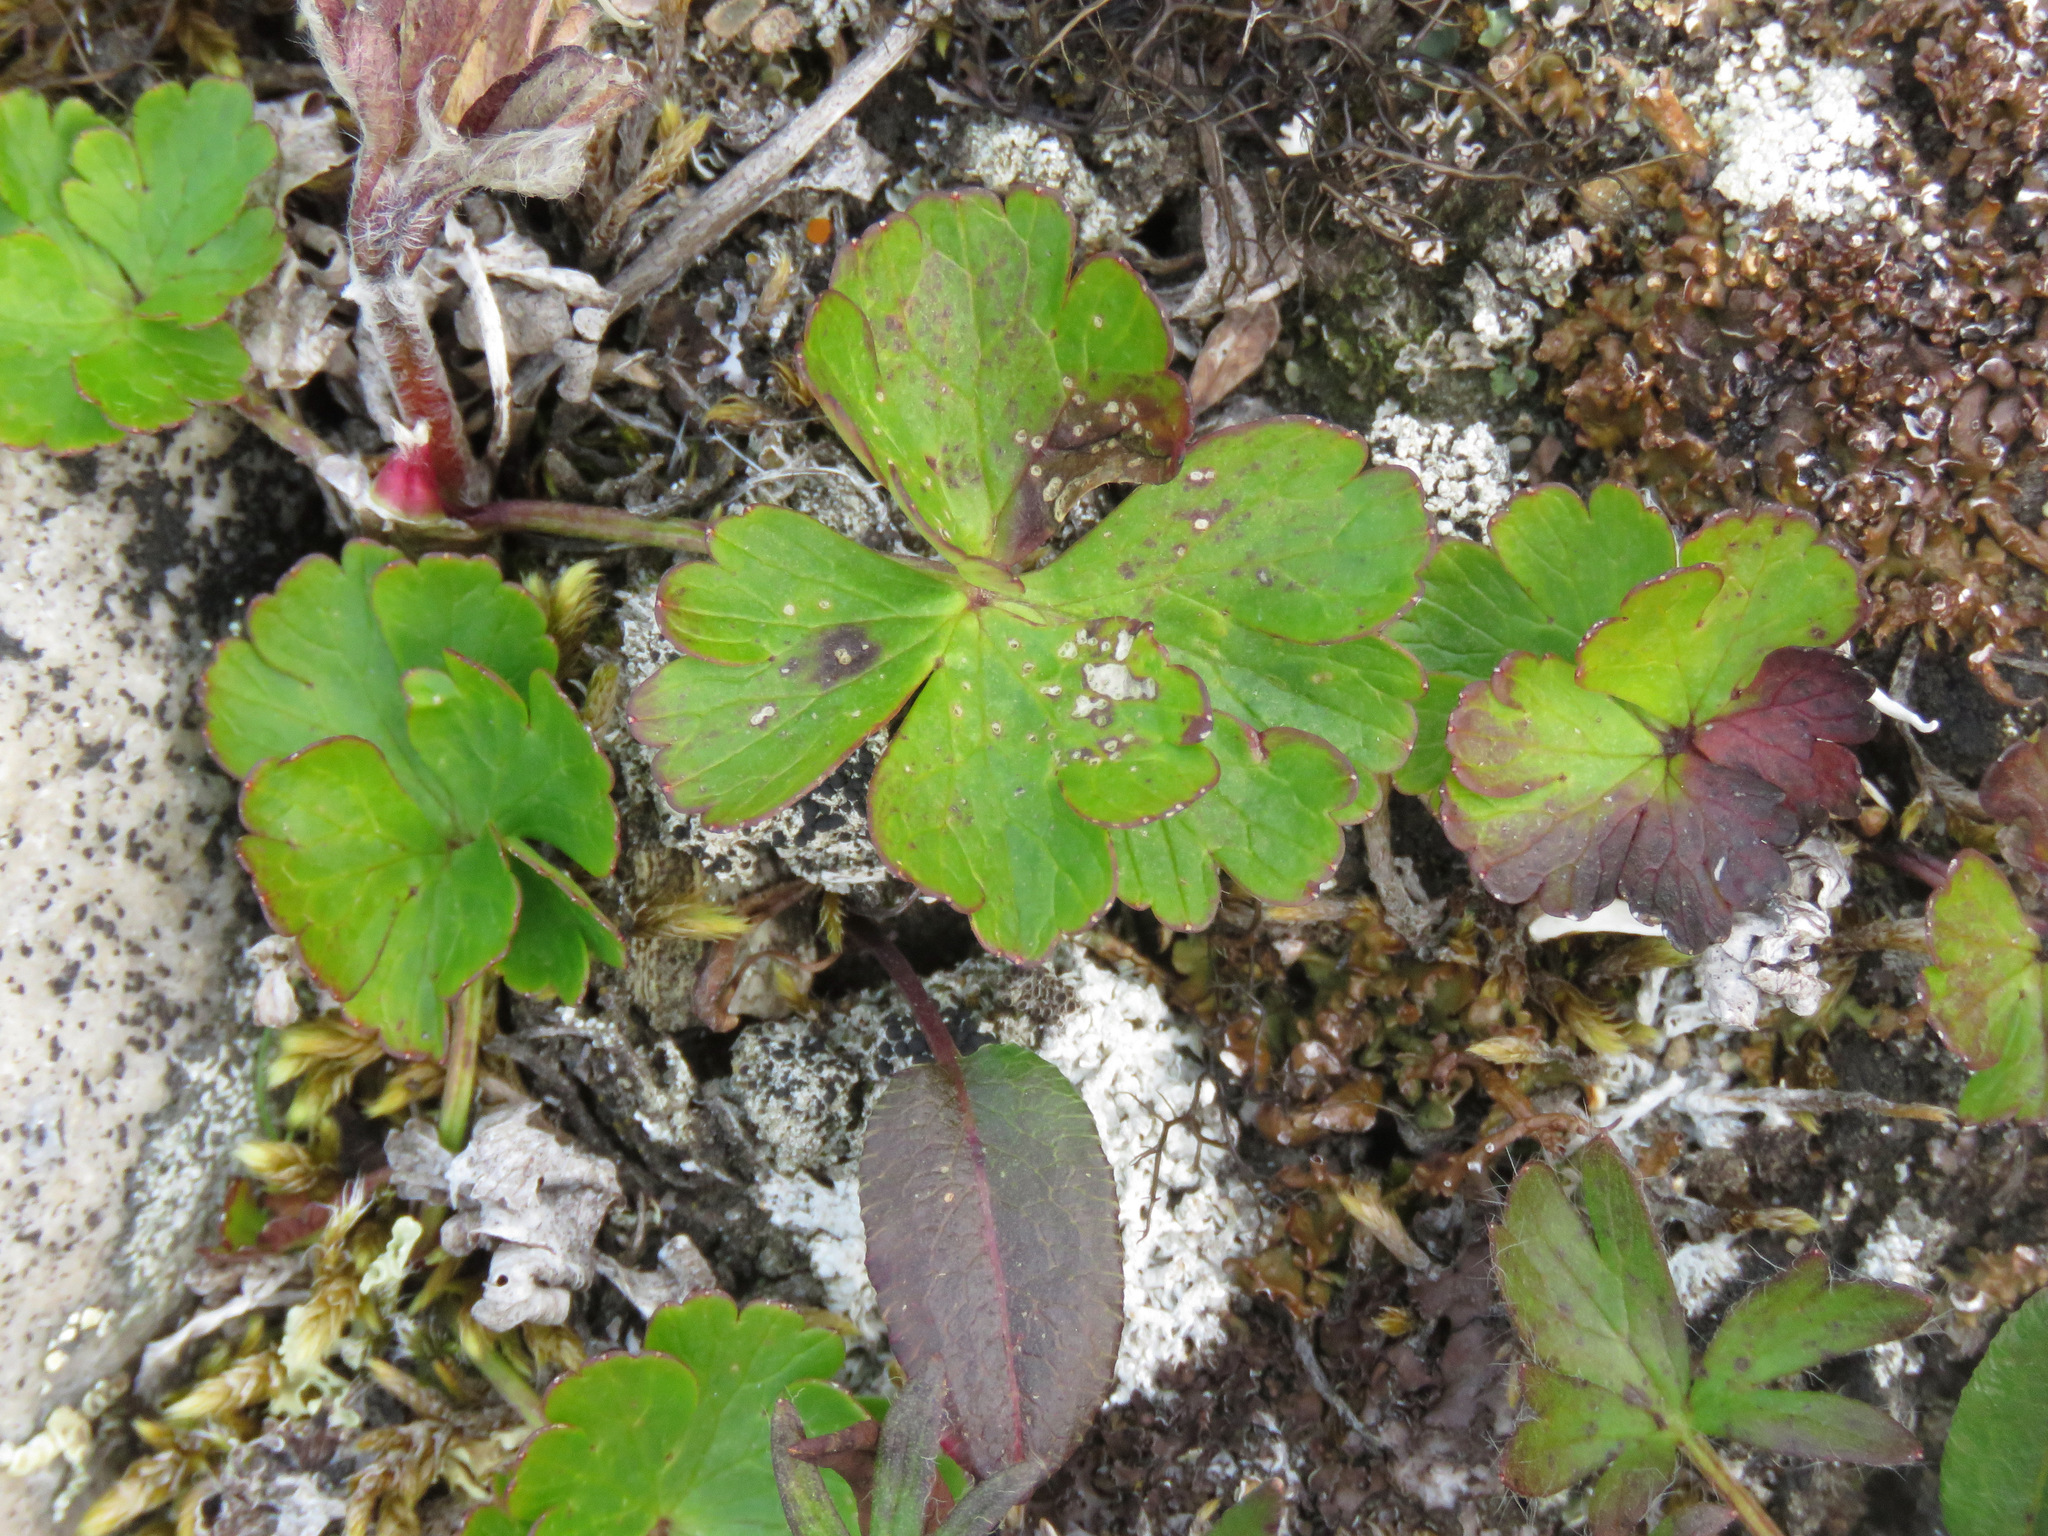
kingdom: Plantae
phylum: Tracheophyta
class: Magnoliopsida
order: Ranunculales
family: Ranunculaceae
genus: Anemone
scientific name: Anemone parviflora
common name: Northern anemone
